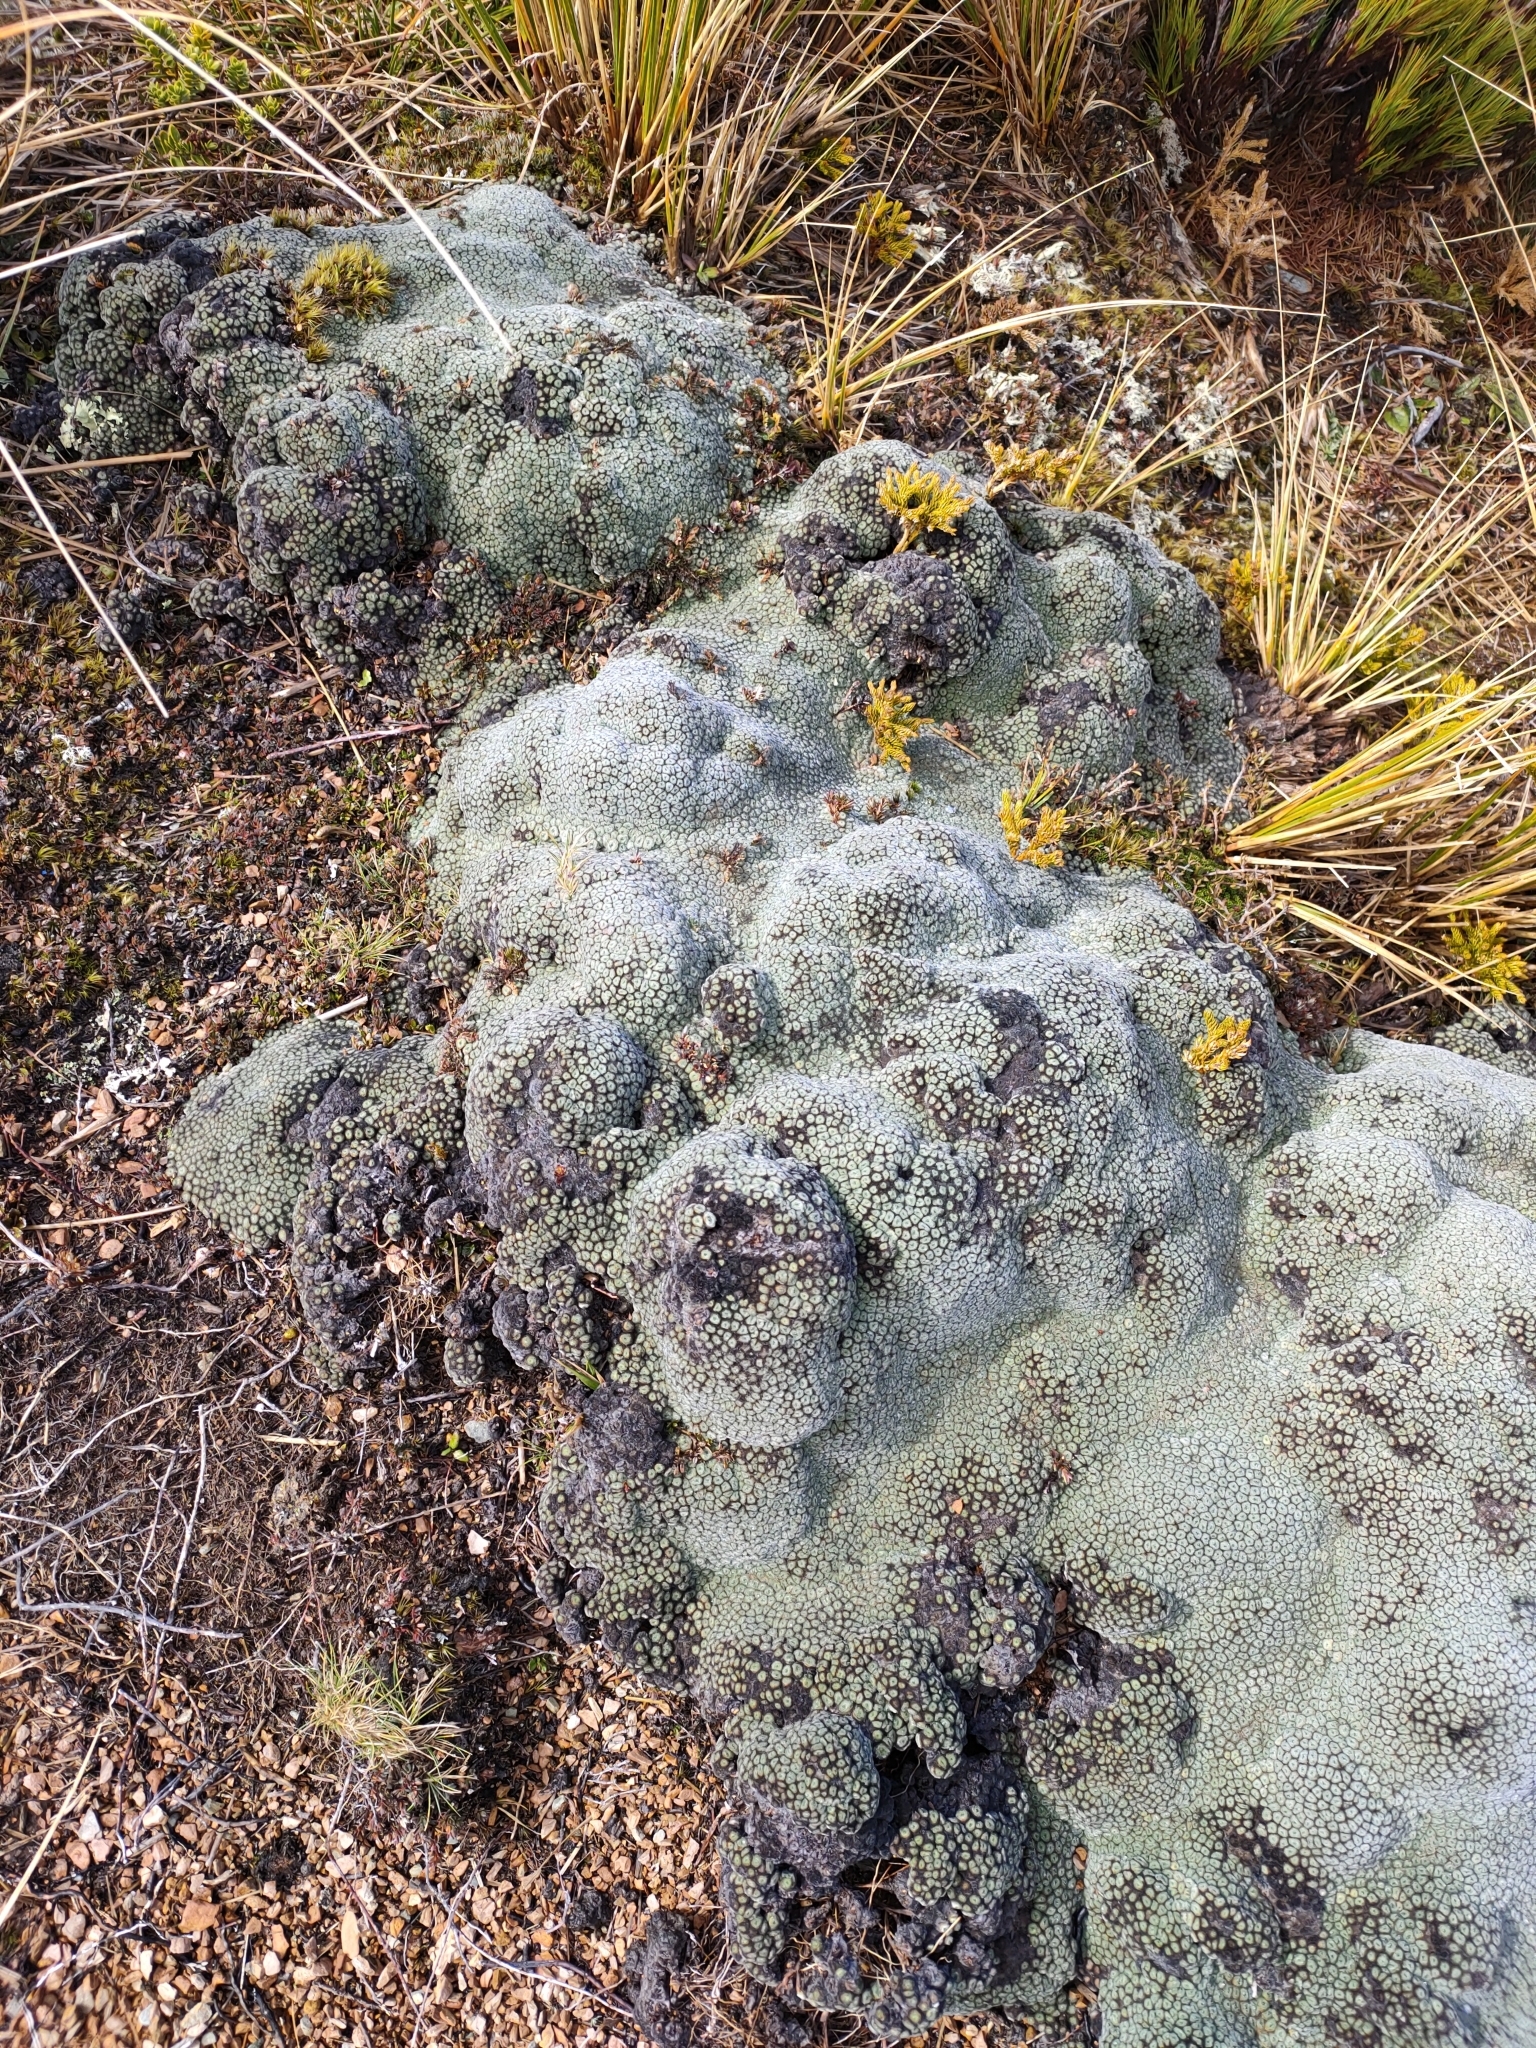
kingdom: Plantae
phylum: Tracheophyta
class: Magnoliopsida
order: Asterales
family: Asteraceae
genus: Raoulia
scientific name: Raoulia eximia
